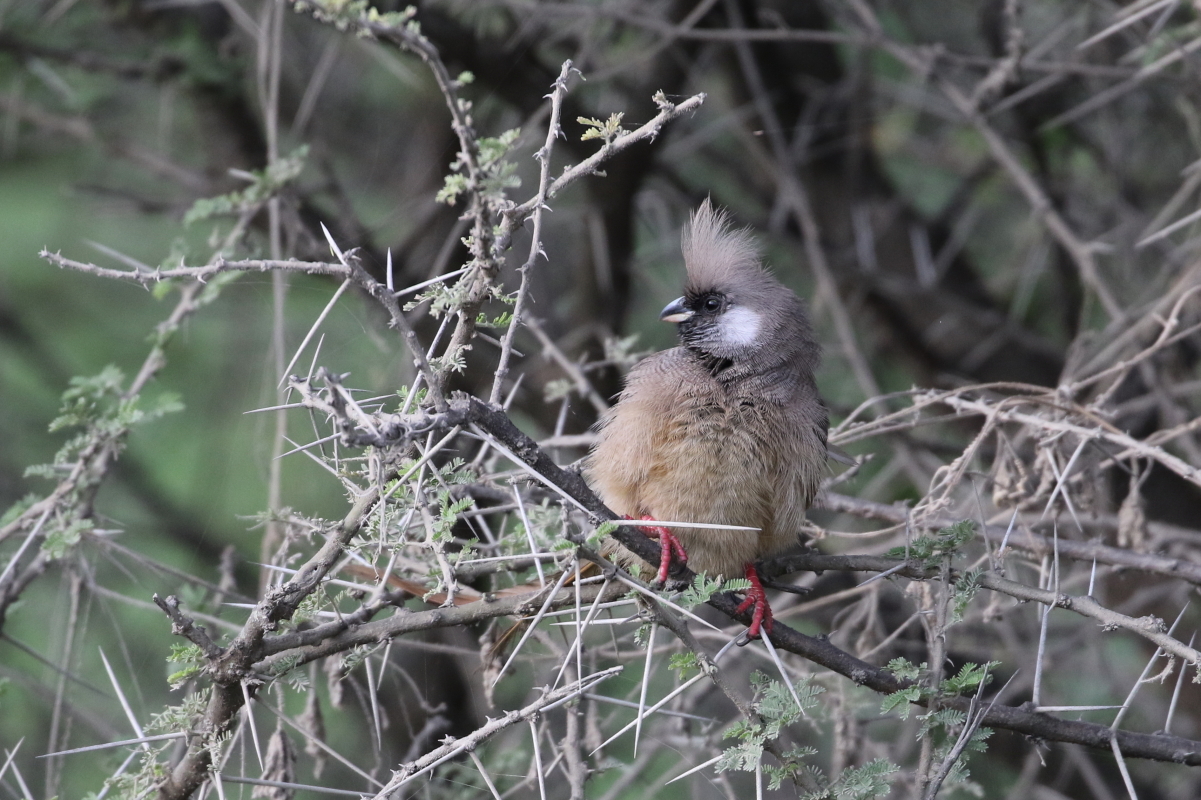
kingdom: Animalia
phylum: Chordata
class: Aves
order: Coliiformes
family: Coliidae
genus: Colius
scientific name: Colius striatus
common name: Speckled mousebird
